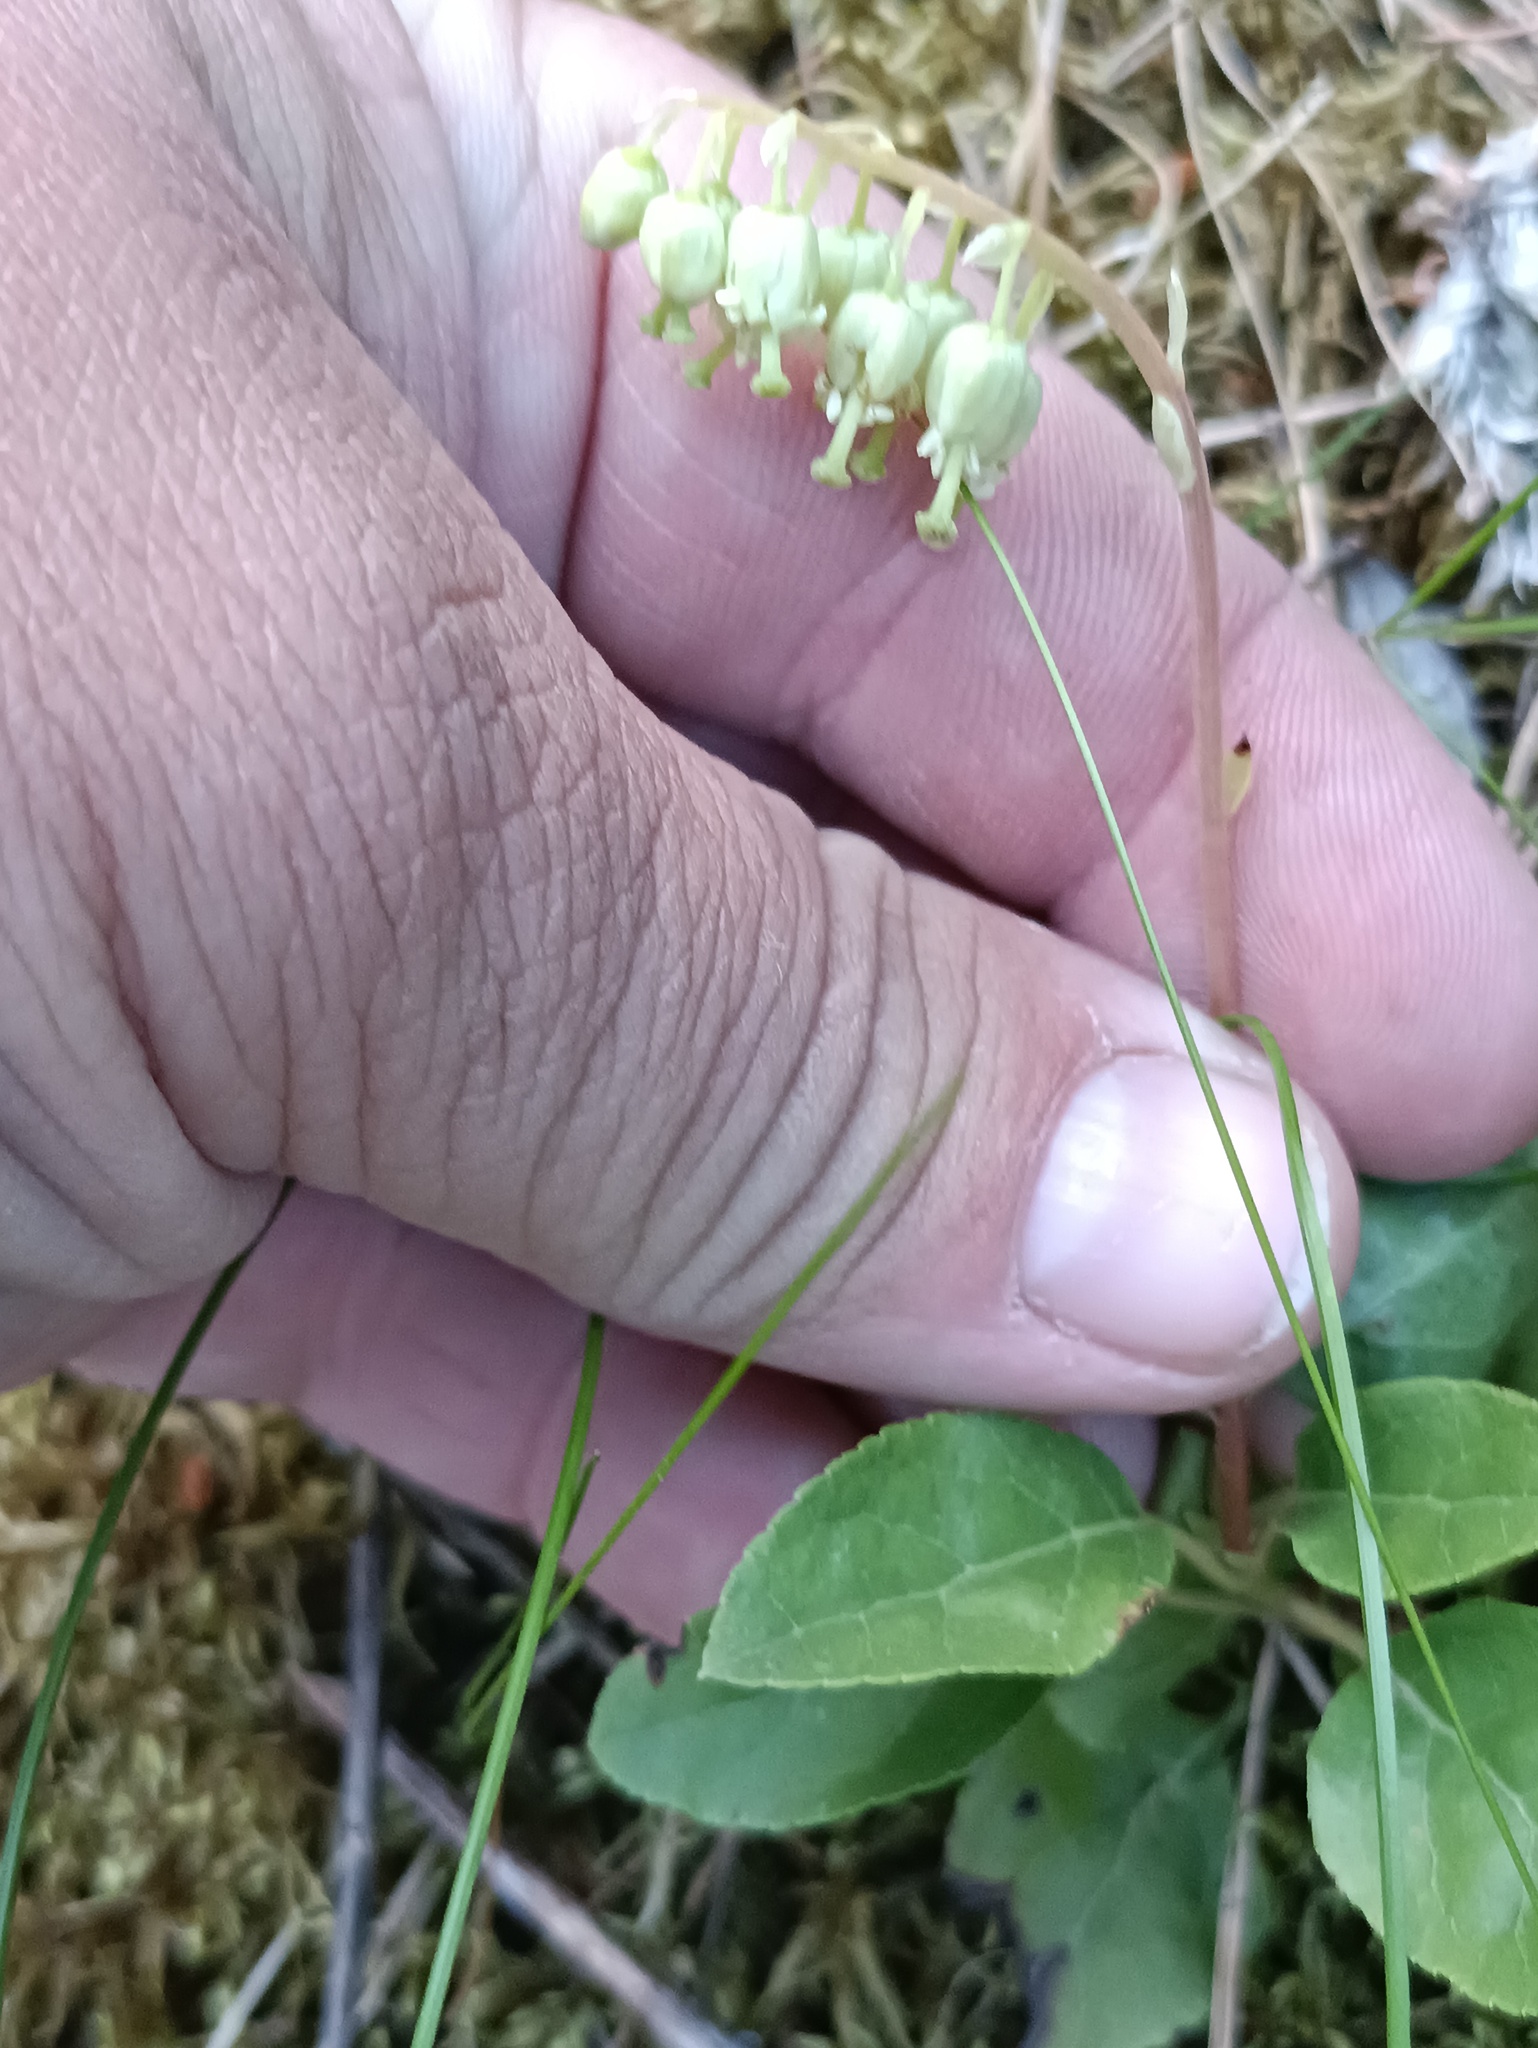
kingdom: Plantae
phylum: Tracheophyta
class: Magnoliopsida
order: Ericales
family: Ericaceae
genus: Orthilia
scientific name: Orthilia secunda
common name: One-sided orthilia
